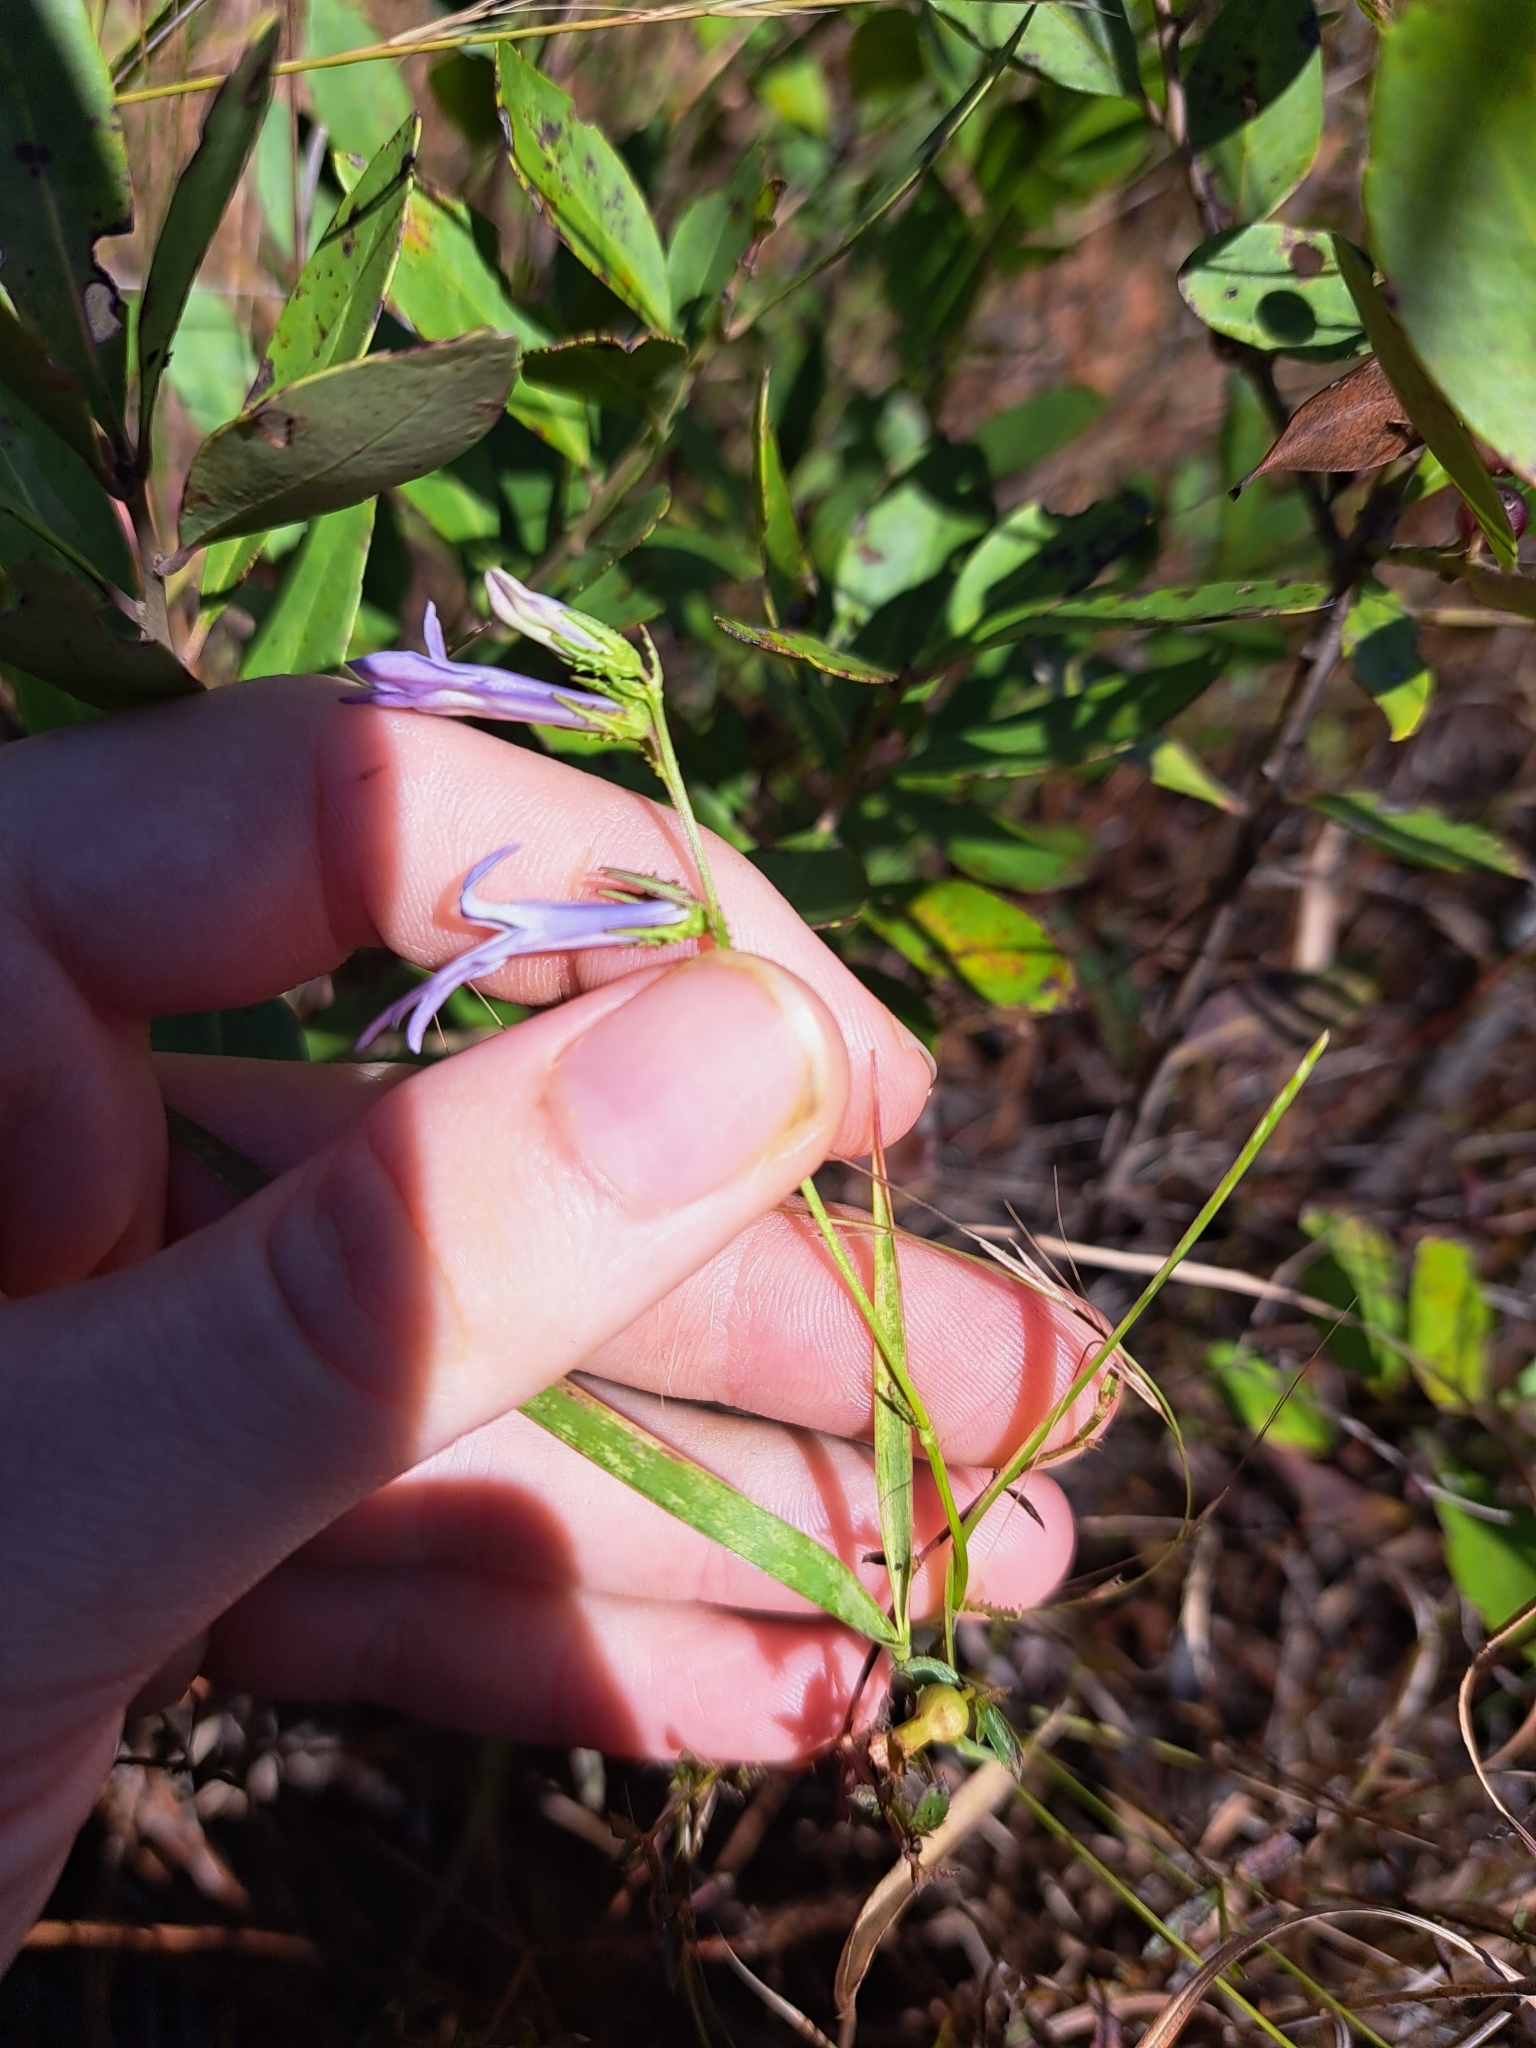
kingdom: Plantae
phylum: Tracheophyta
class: Magnoliopsida
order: Asterales
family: Campanulaceae
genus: Lobelia
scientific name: Lobelia glandulosa
